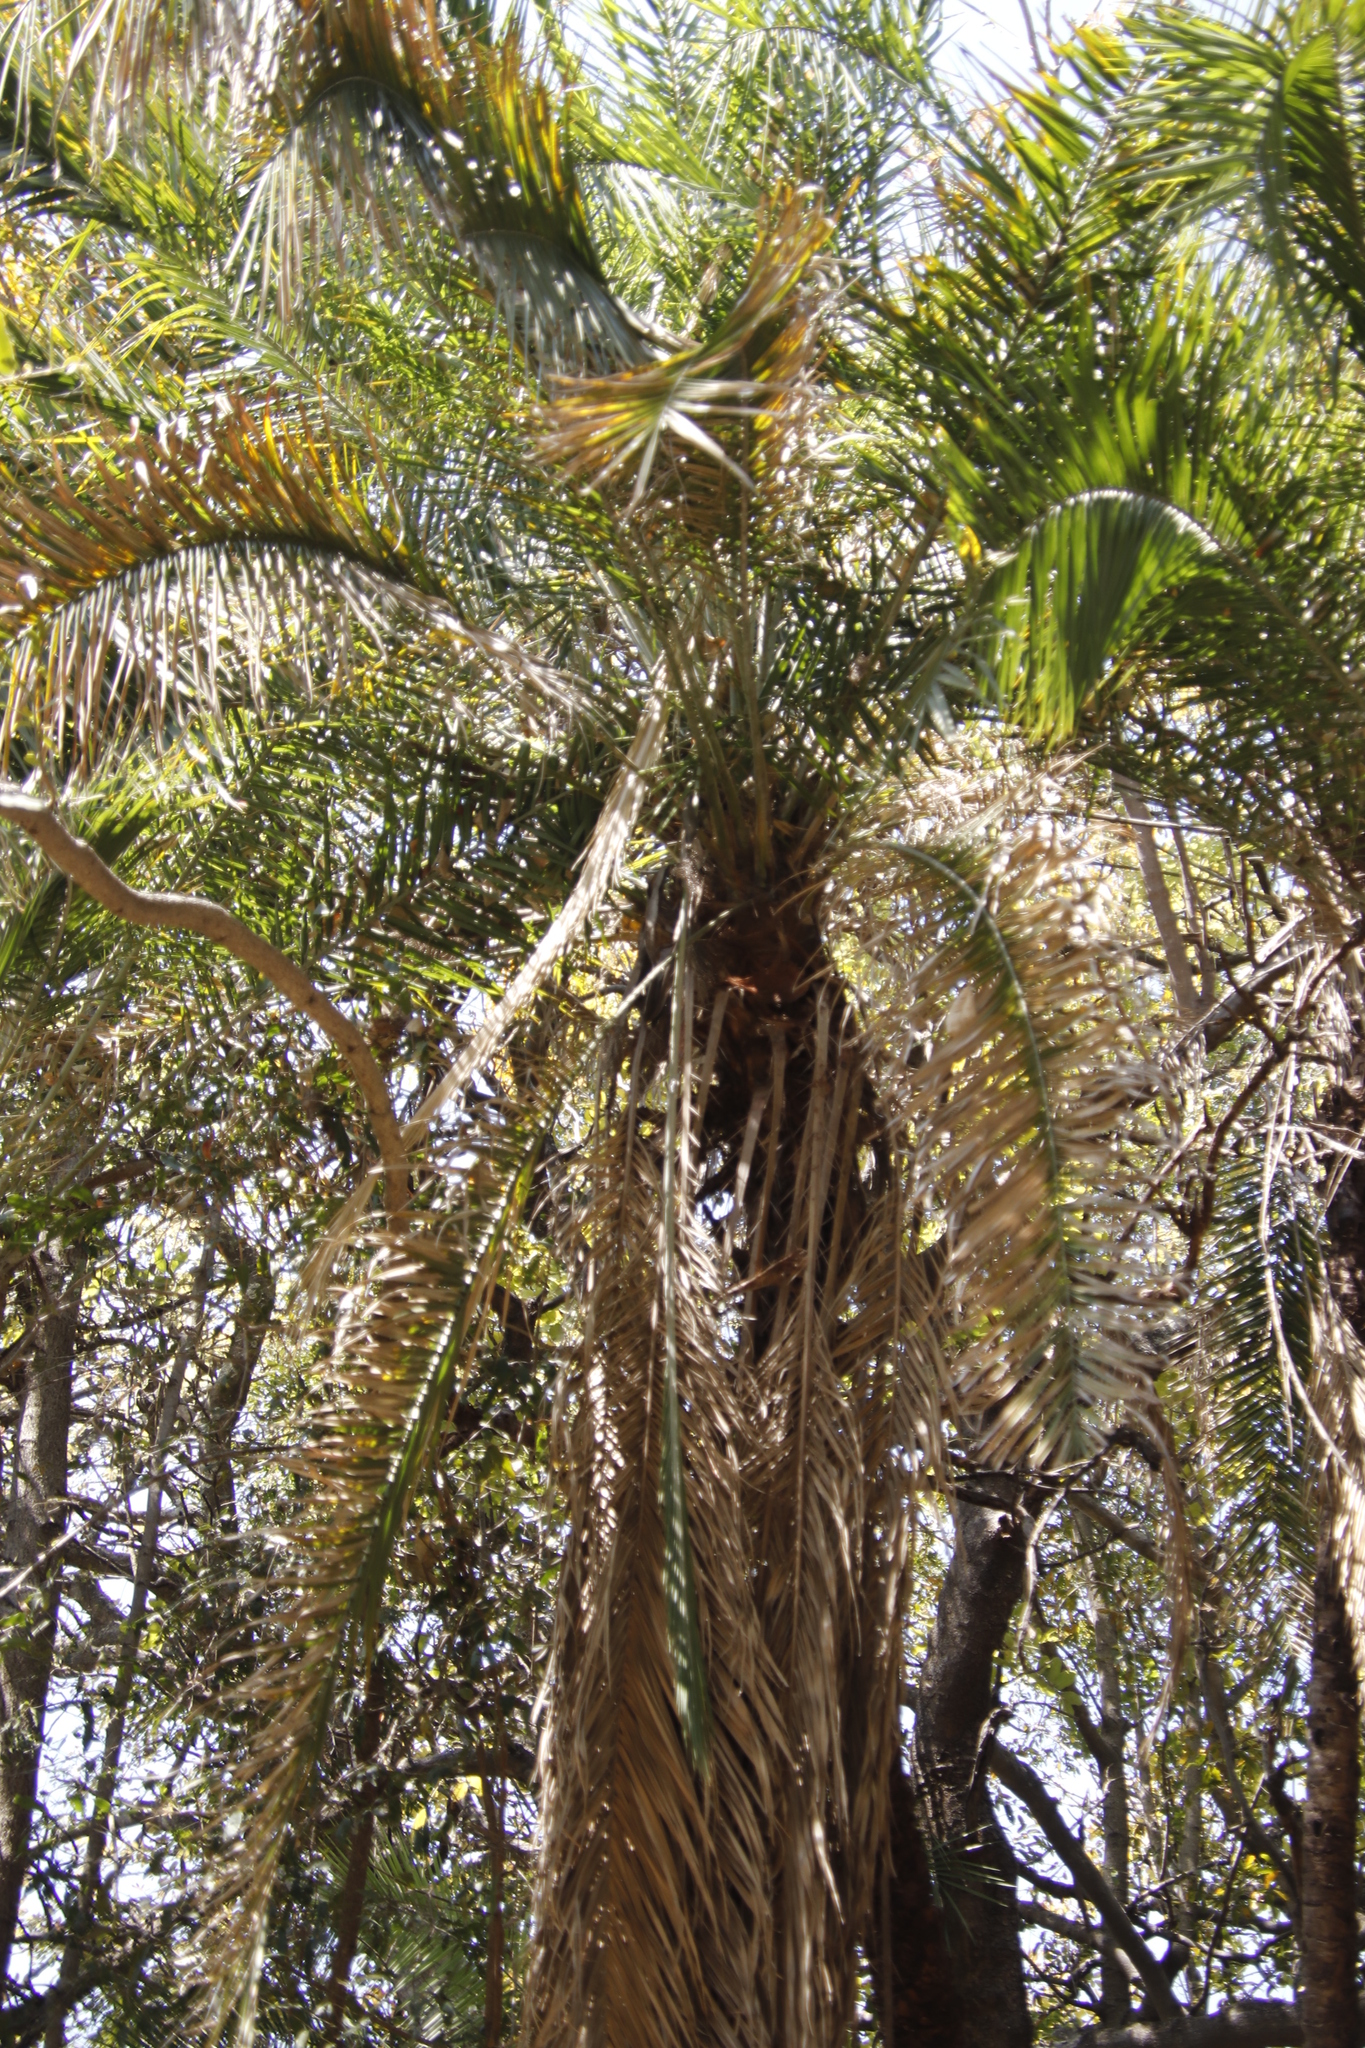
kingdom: Plantae
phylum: Tracheophyta
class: Liliopsida
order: Arecales
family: Arecaceae
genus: Phoenix
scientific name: Phoenix reclinata
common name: Senegal date palm
